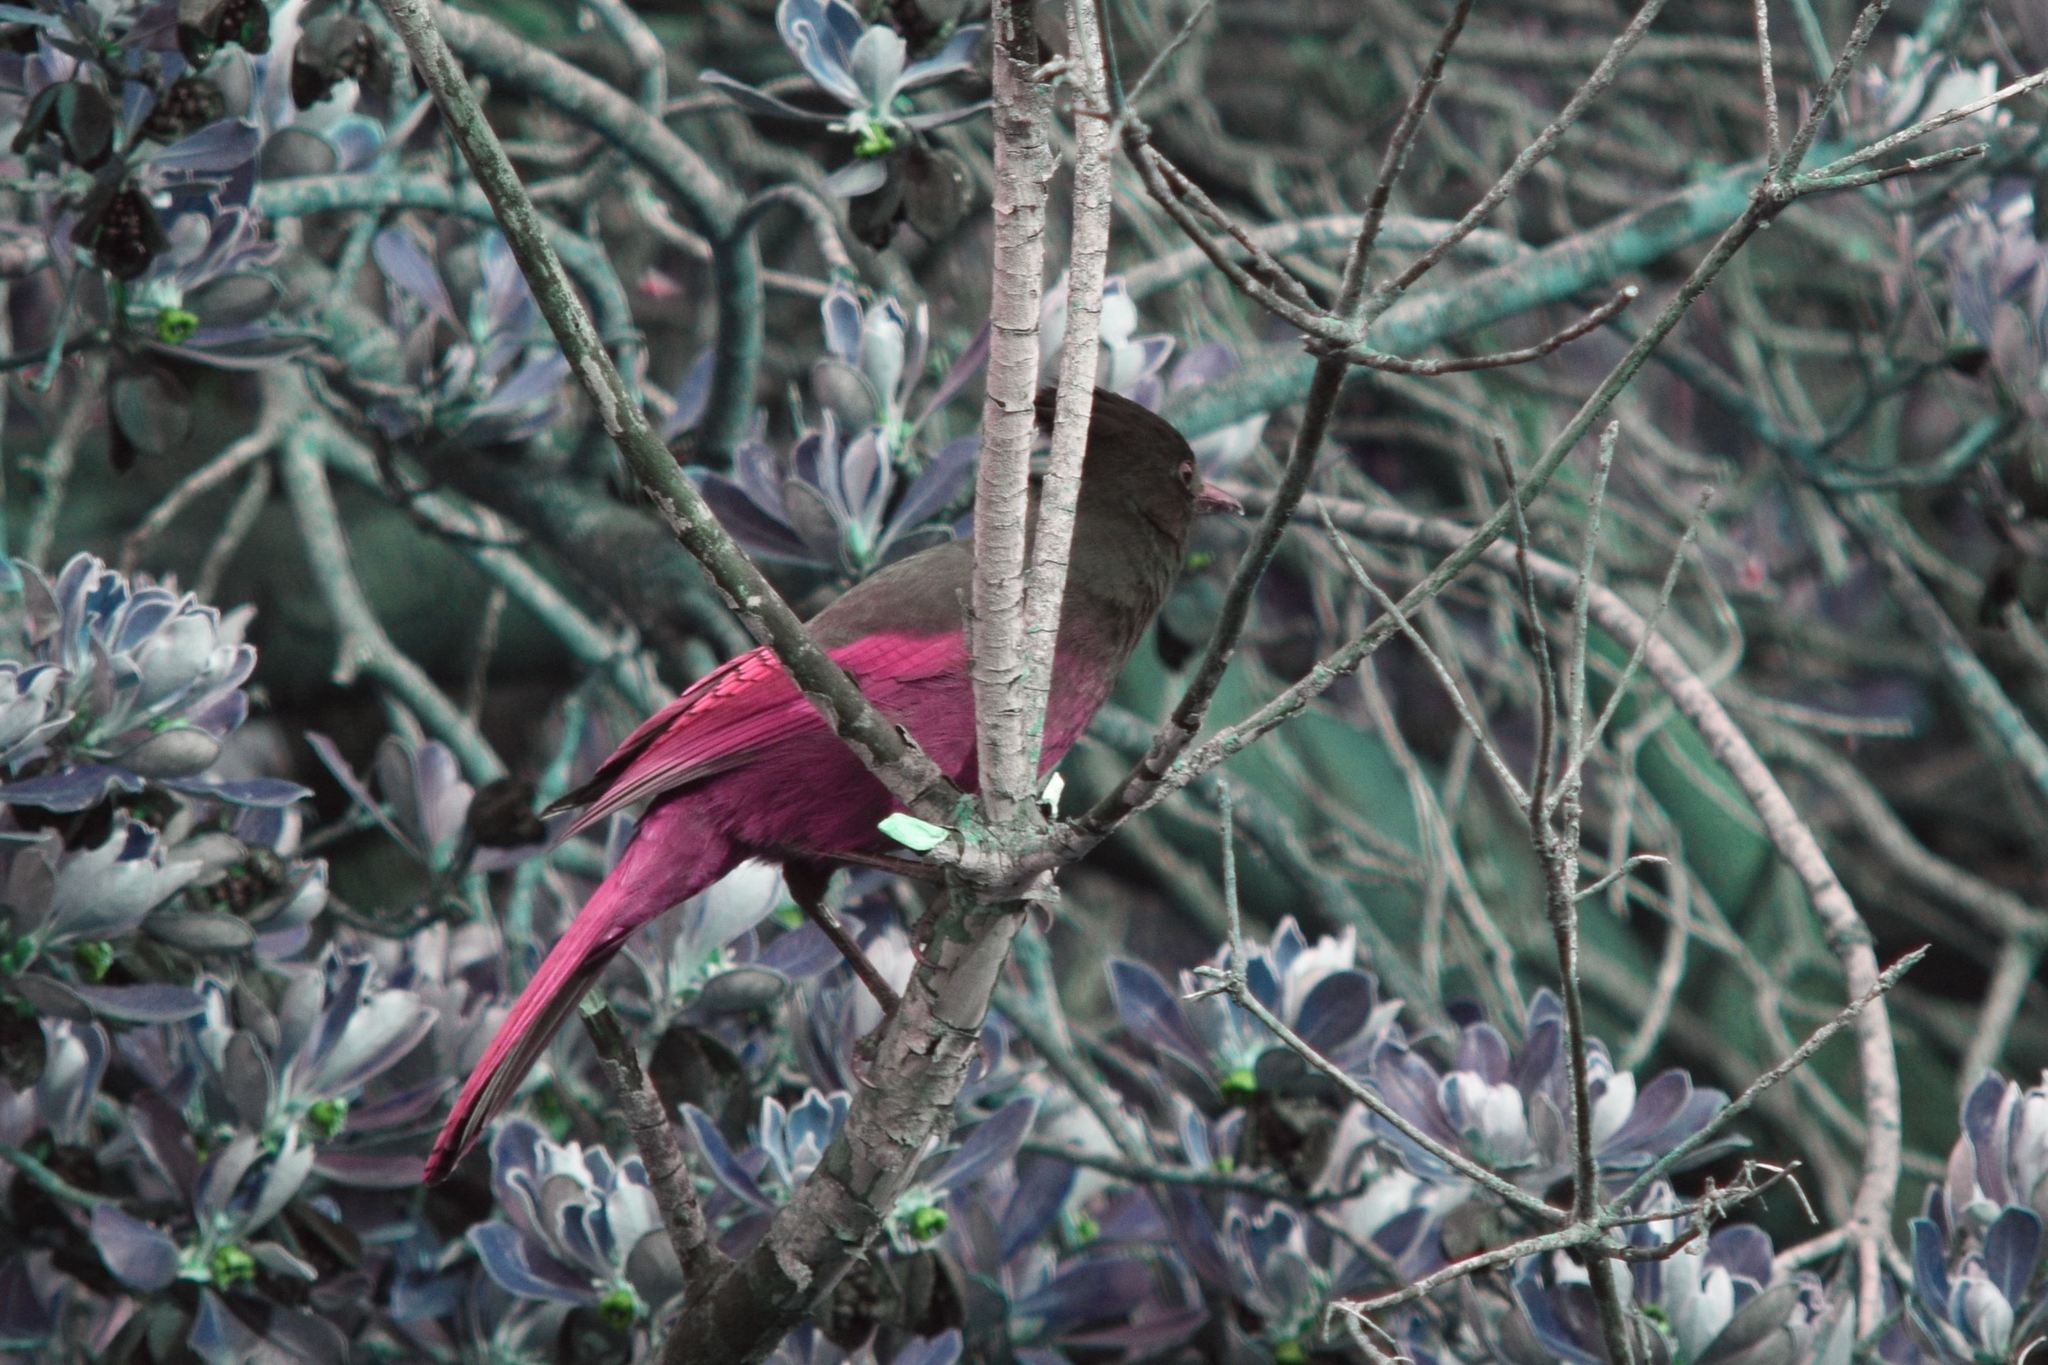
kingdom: Animalia
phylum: Chordata
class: Aves
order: Passeriformes
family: Corvidae
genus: Cyanocitta
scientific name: Cyanocitta stelleri
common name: Steller's jay
